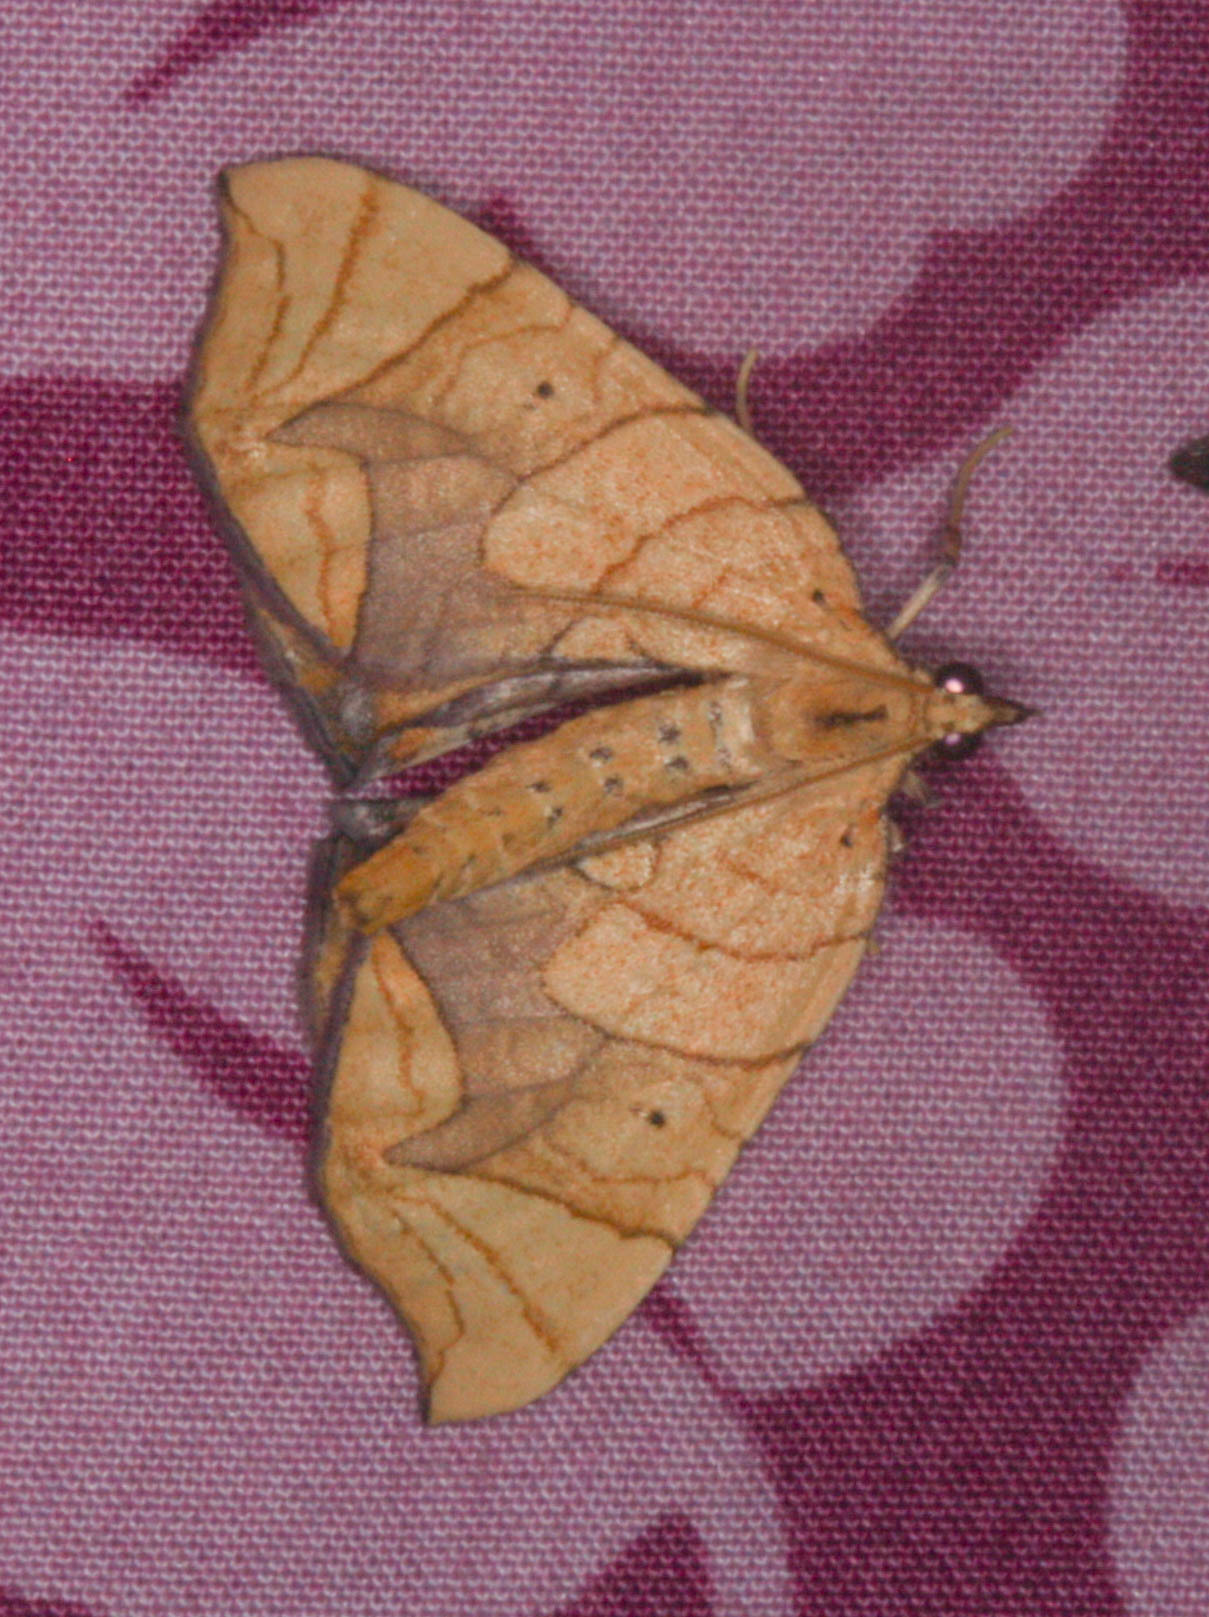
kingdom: Animalia
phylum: Arthropoda
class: Insecta
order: Lepidoptera
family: Geometridae
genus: Eulithis
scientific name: Eulithis diversilineata
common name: Grapevine looper
